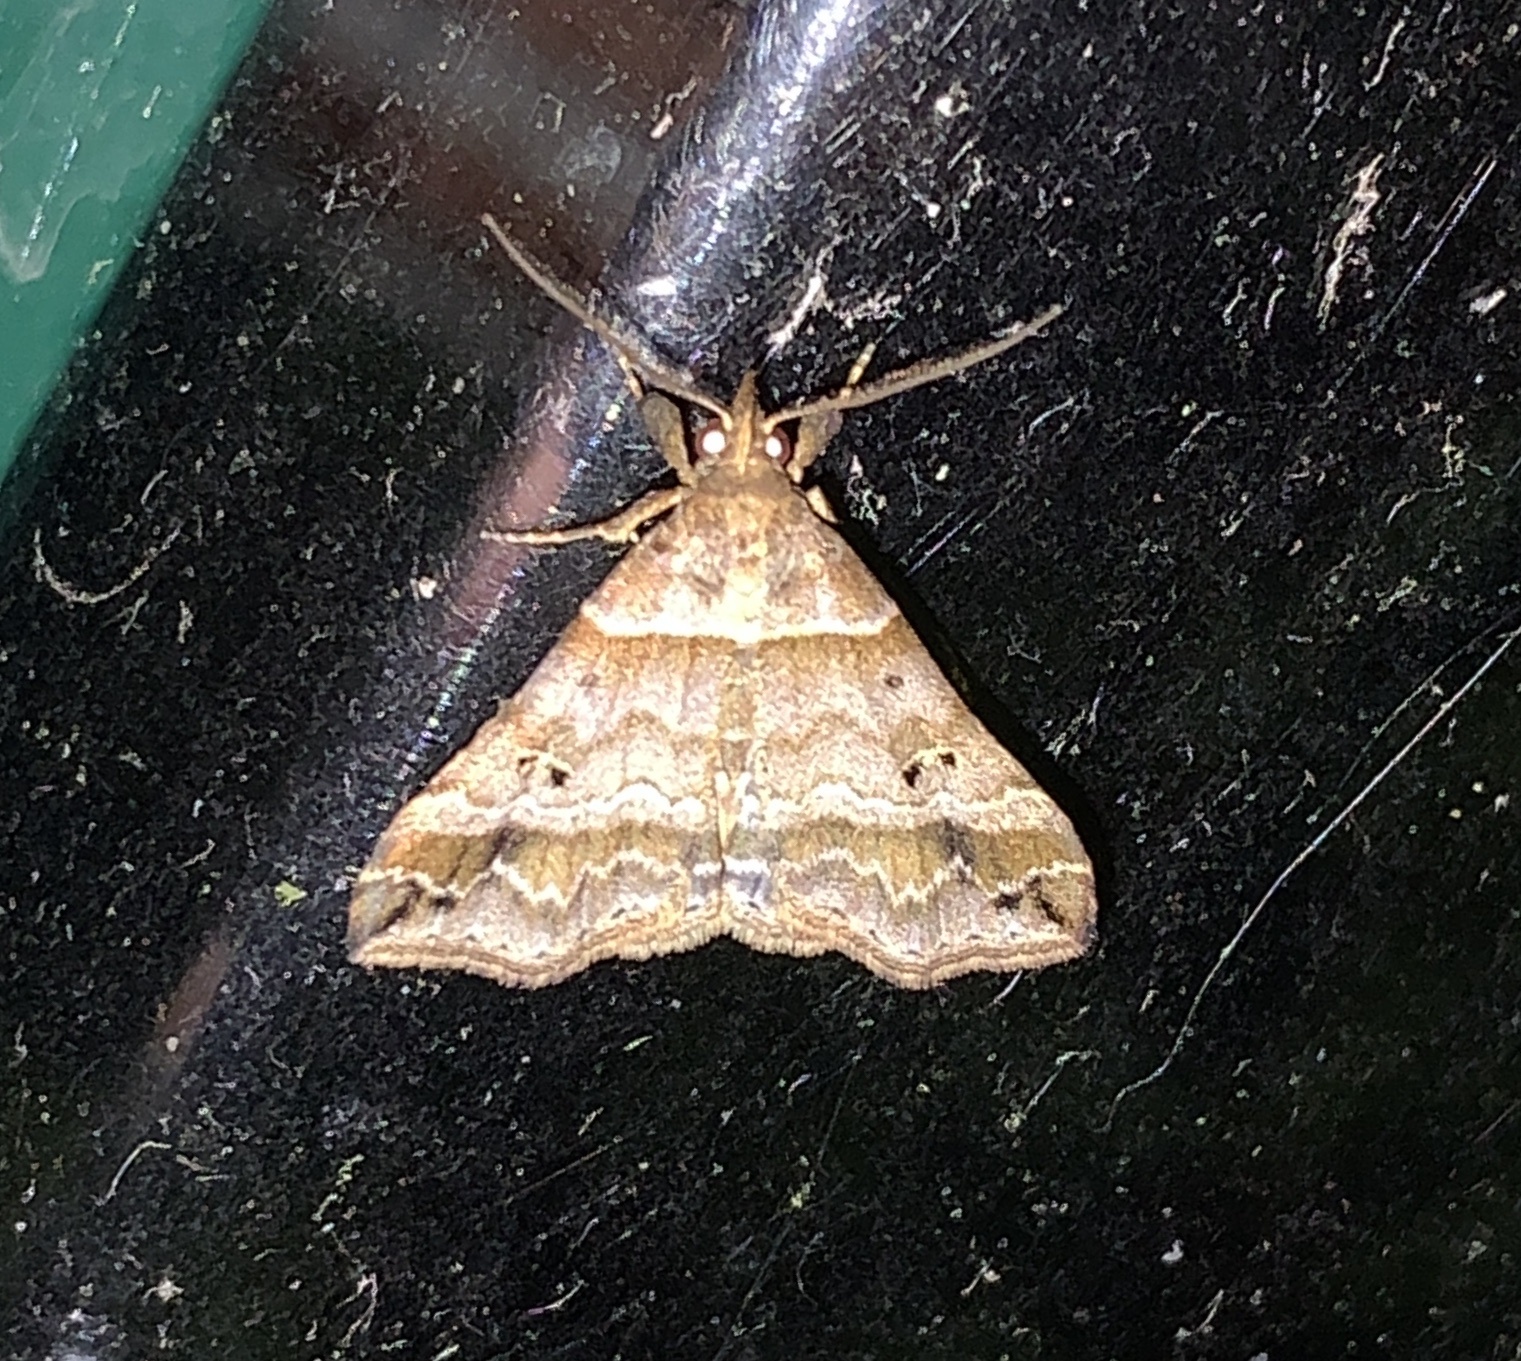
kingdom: Animalia
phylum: Arthropoda
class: Insecta
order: Lepidoptera
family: Erebidae
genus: Phaeolita
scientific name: Phaeolita pyramusalis
